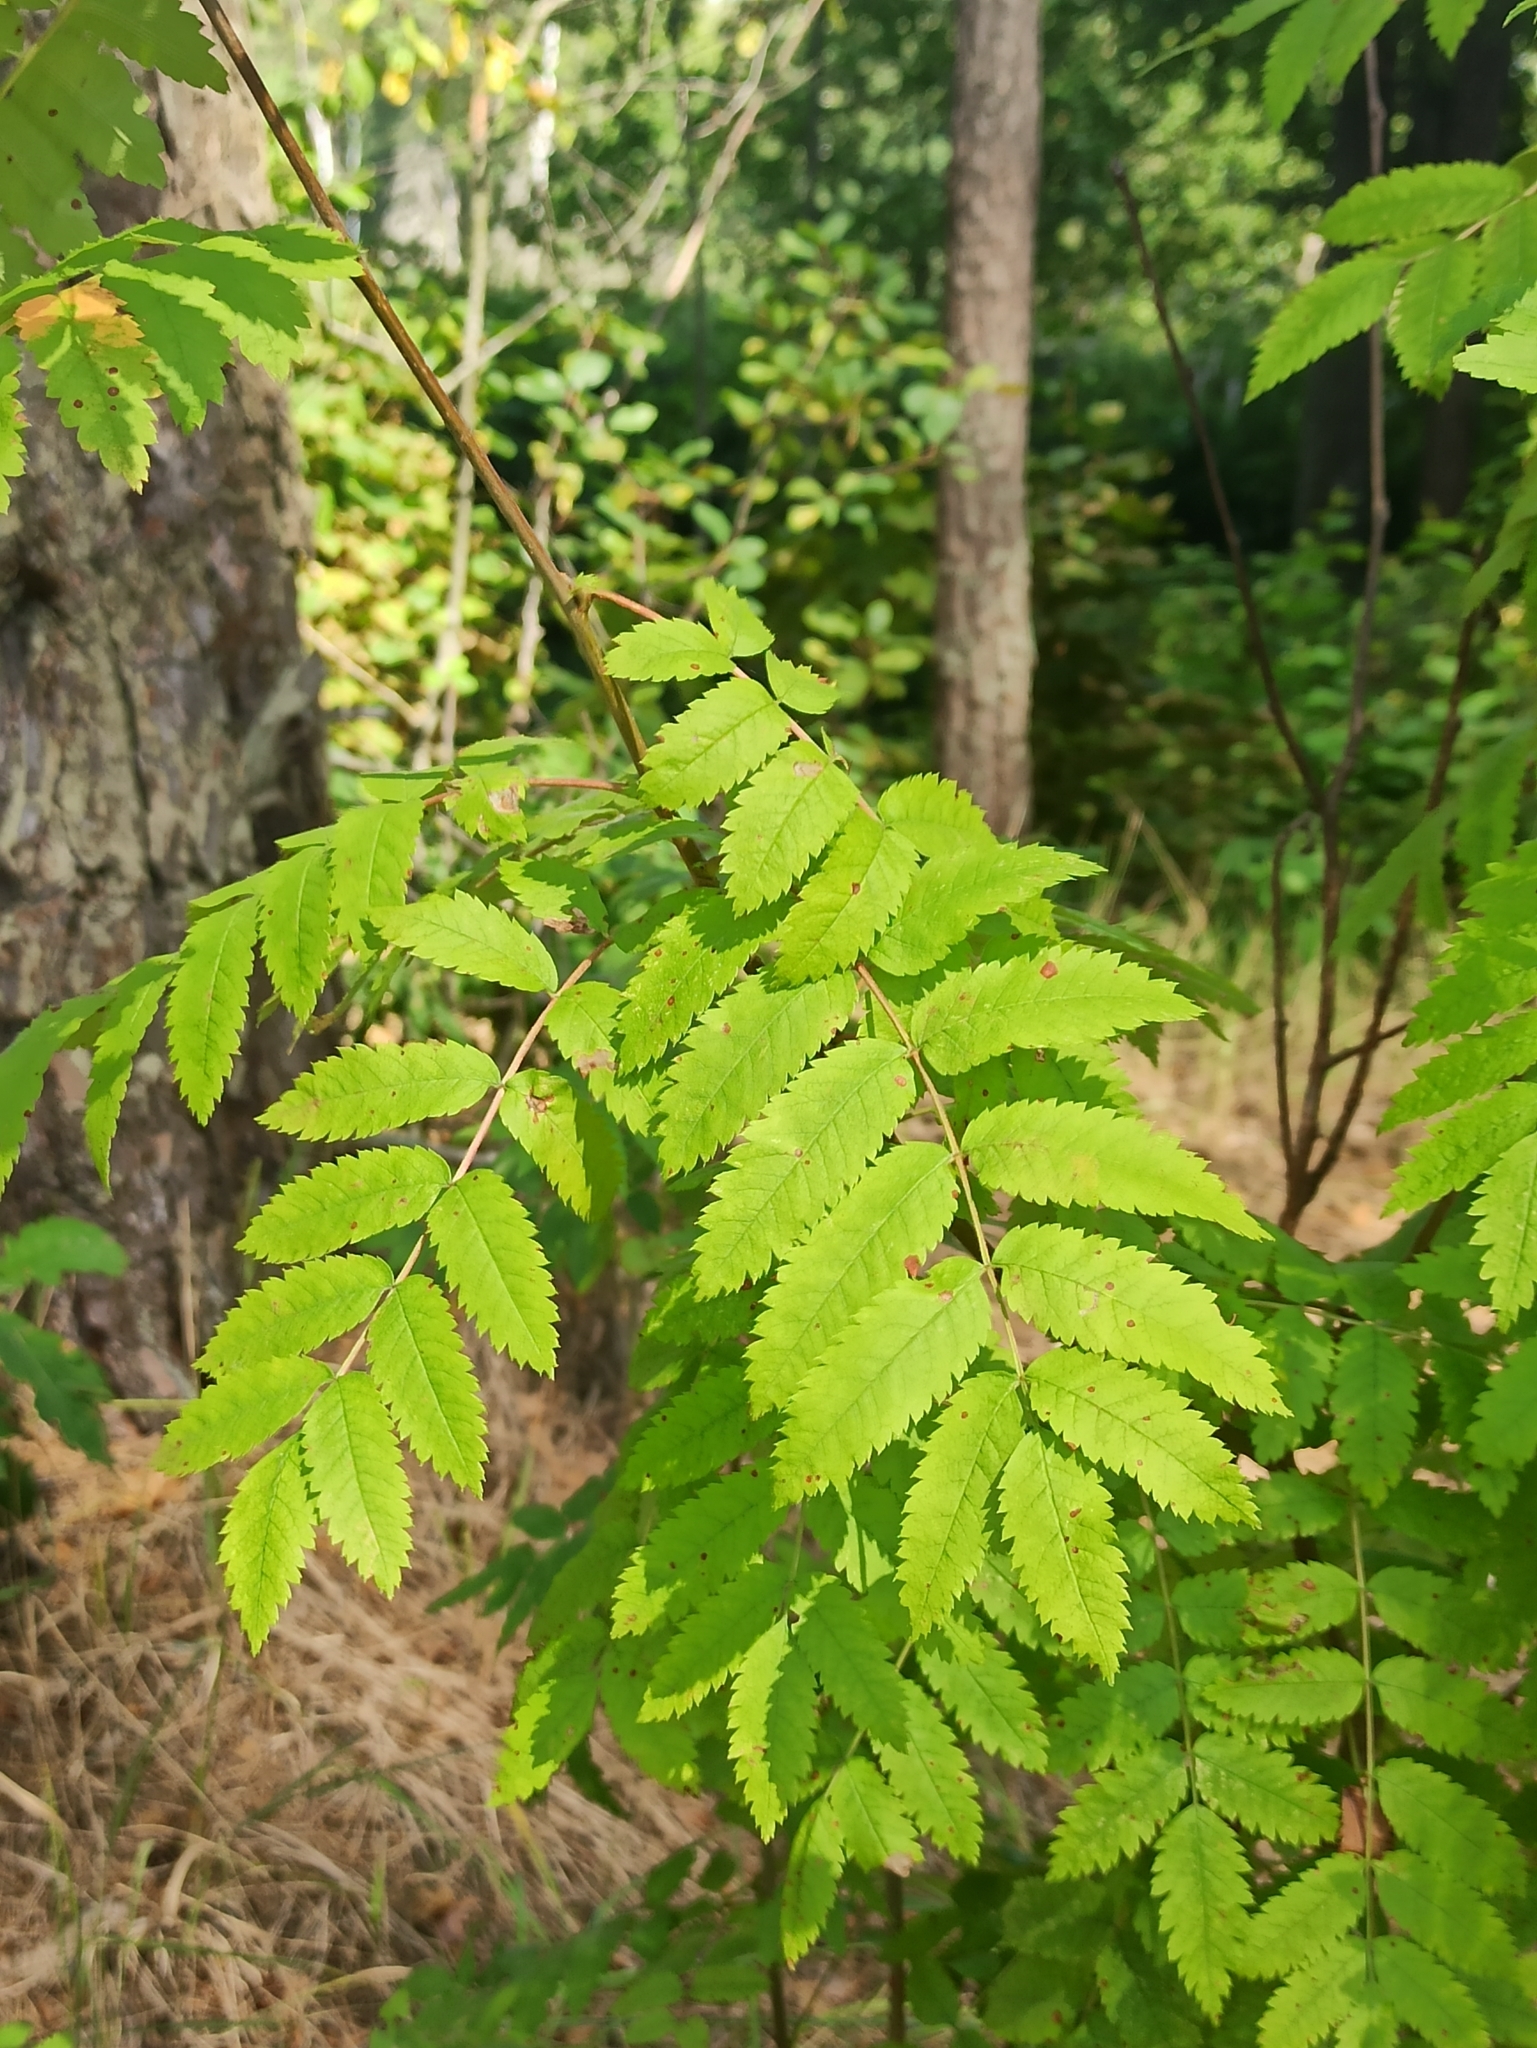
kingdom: Plantae
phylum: Tracheophyta
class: Magnoliopsida
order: Rosales
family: Rosaceae
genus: Sorbus
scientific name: Sorbus aucuparia
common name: Rowan
